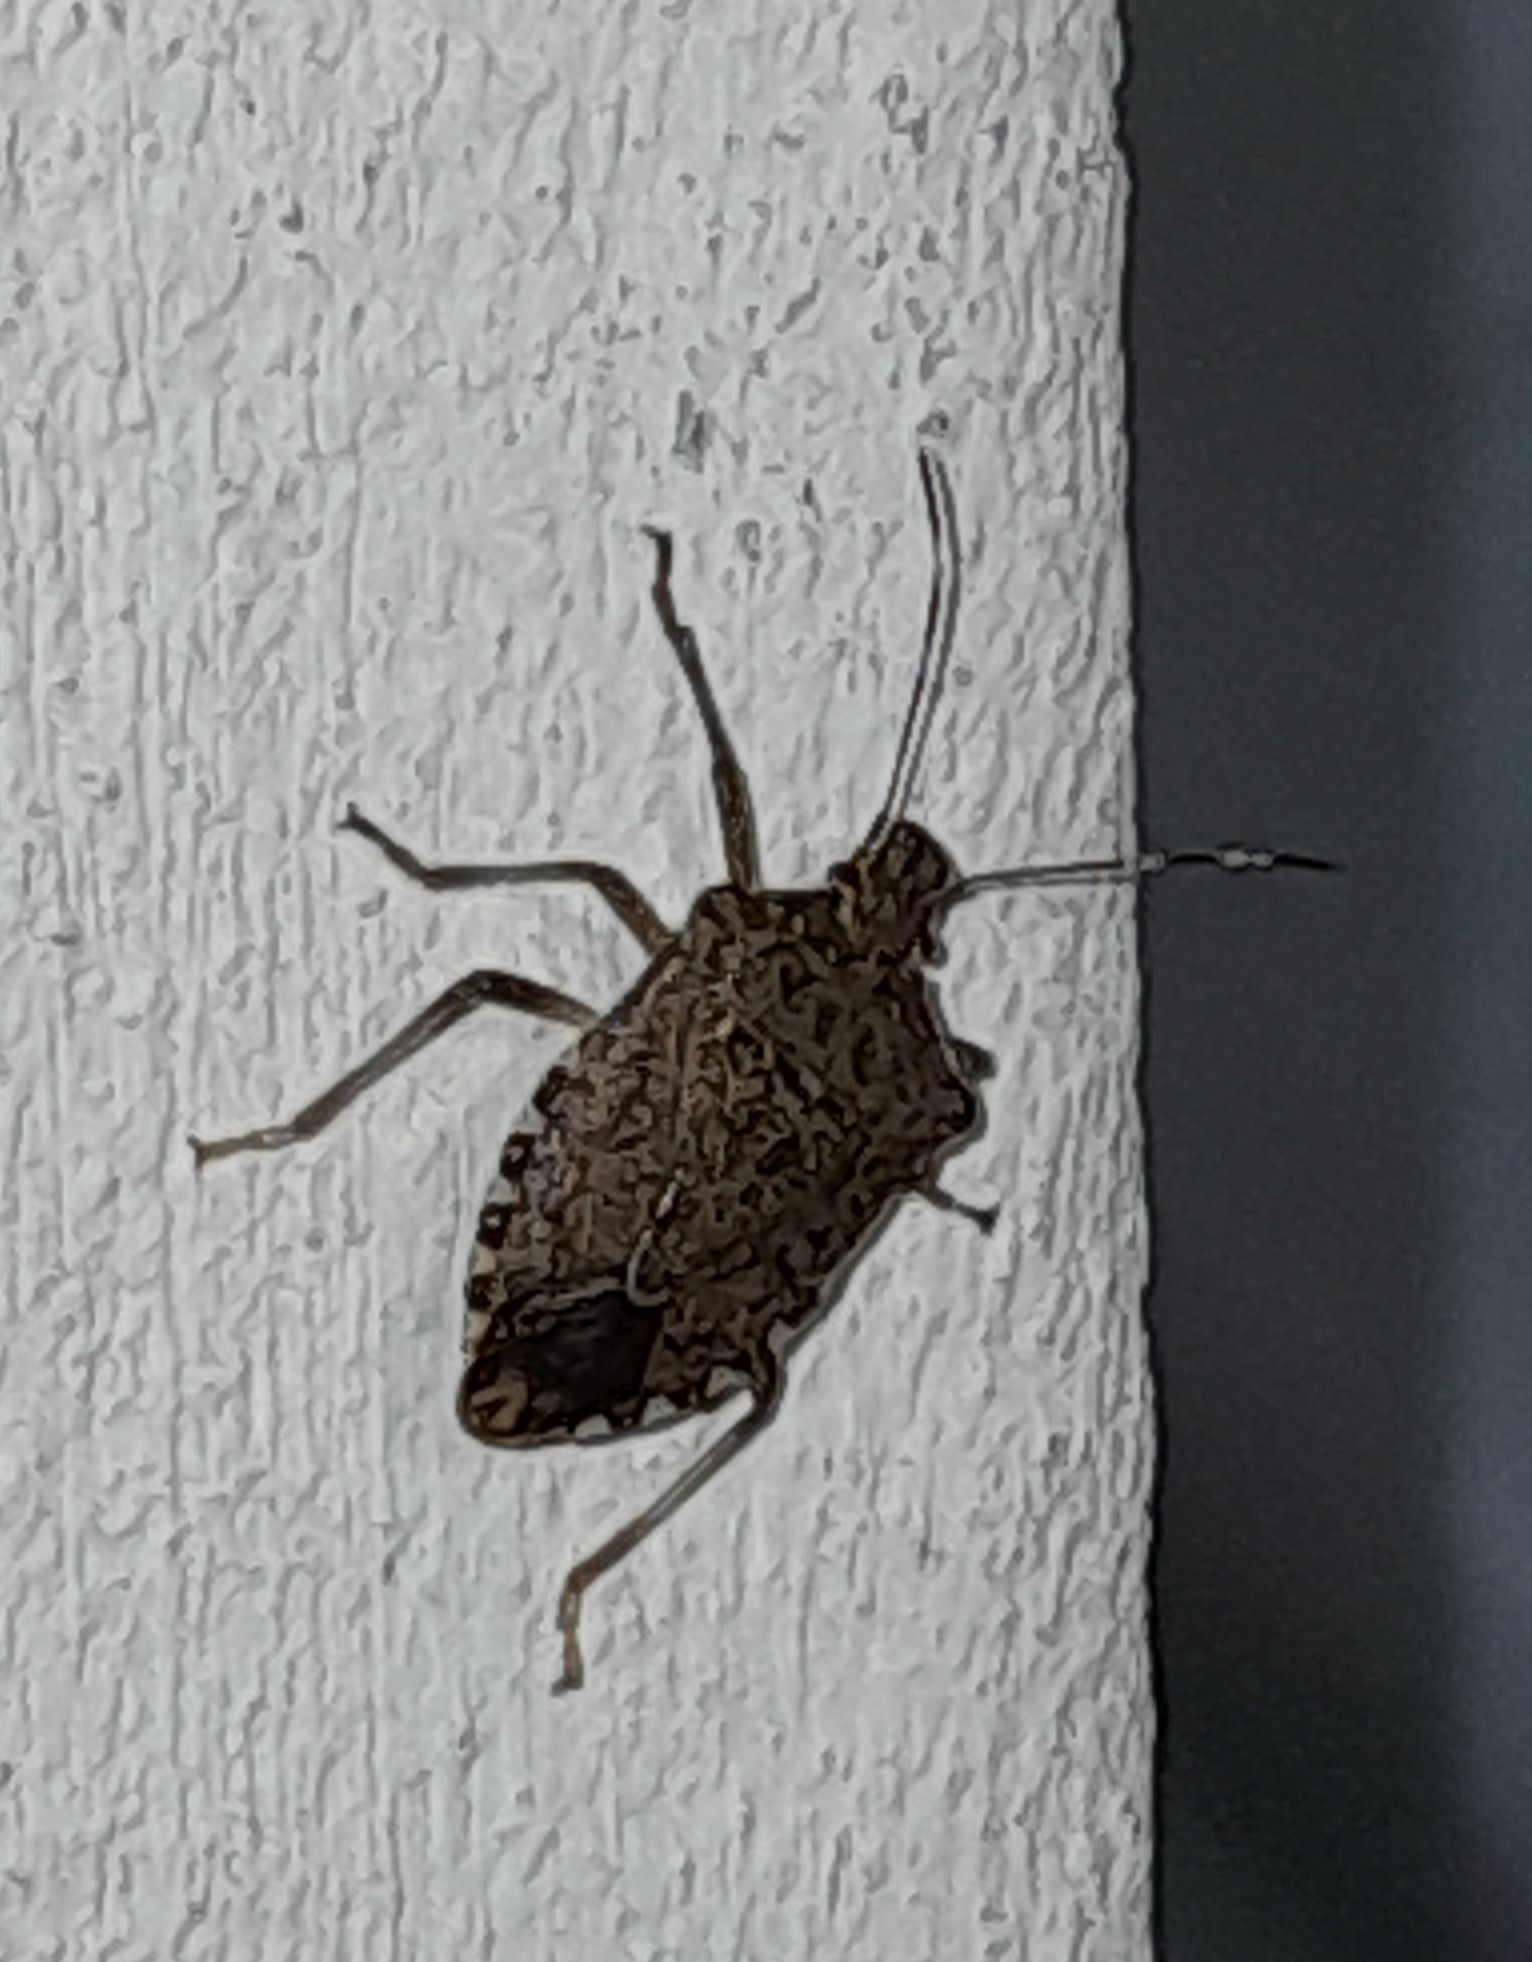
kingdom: Animalia
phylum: Arthropoda
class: Insecta
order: Hemiptera
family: Pentatomidae
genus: Halyomorpha
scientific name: Halyomorpha halys
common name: Brown marmorated stink bug
